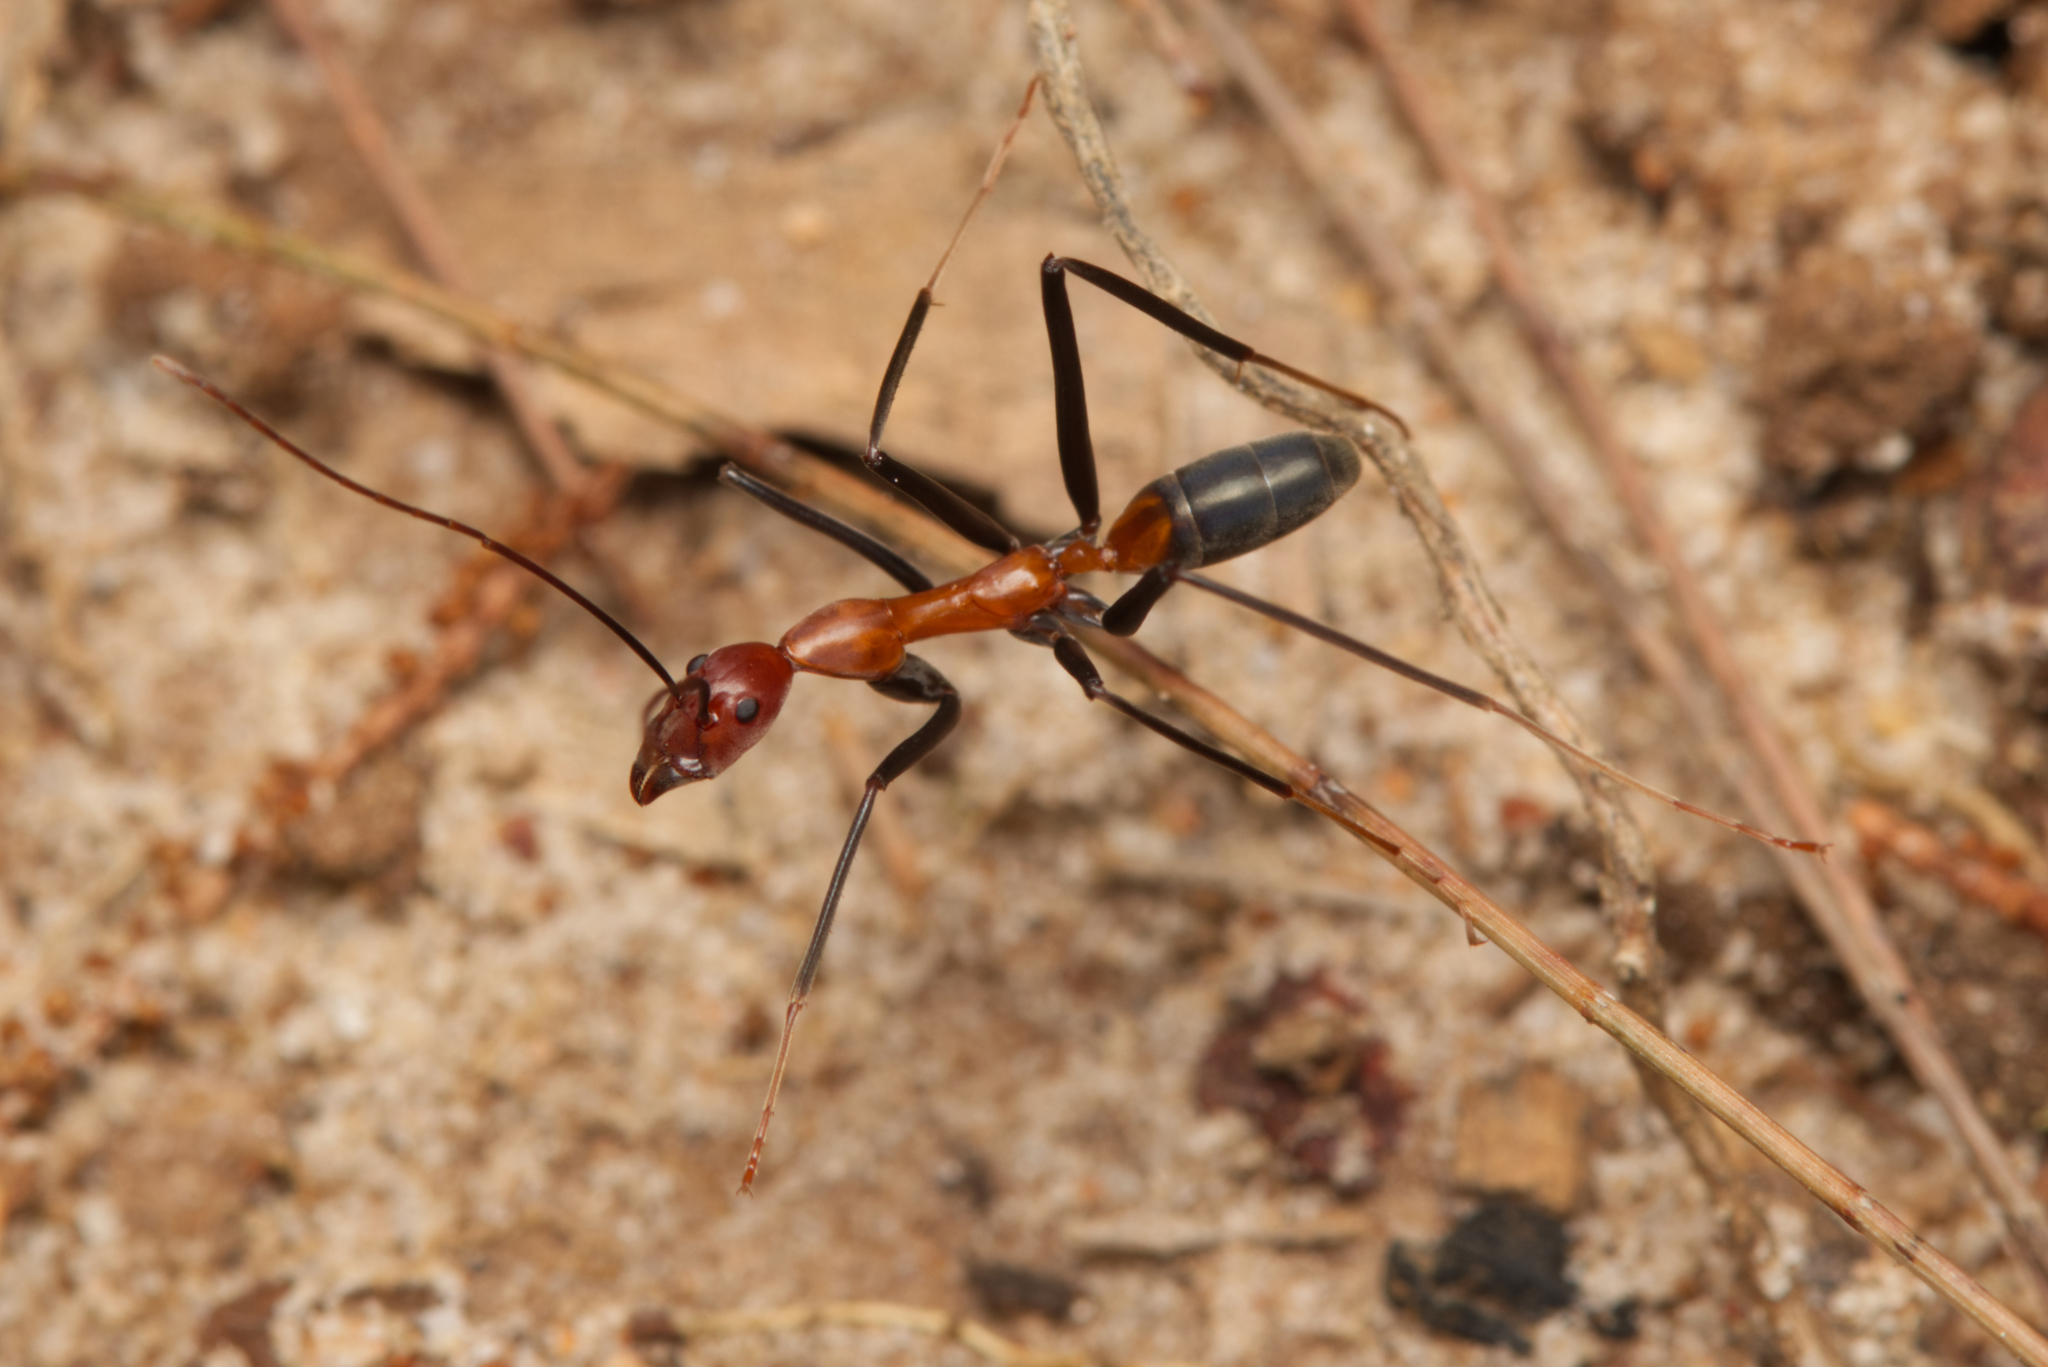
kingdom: Animalia
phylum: Arthropoda
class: Insecta
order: Hymenoptera
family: Formicidae
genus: Leptomyrmex
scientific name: Leptomyrmex rufithorax
